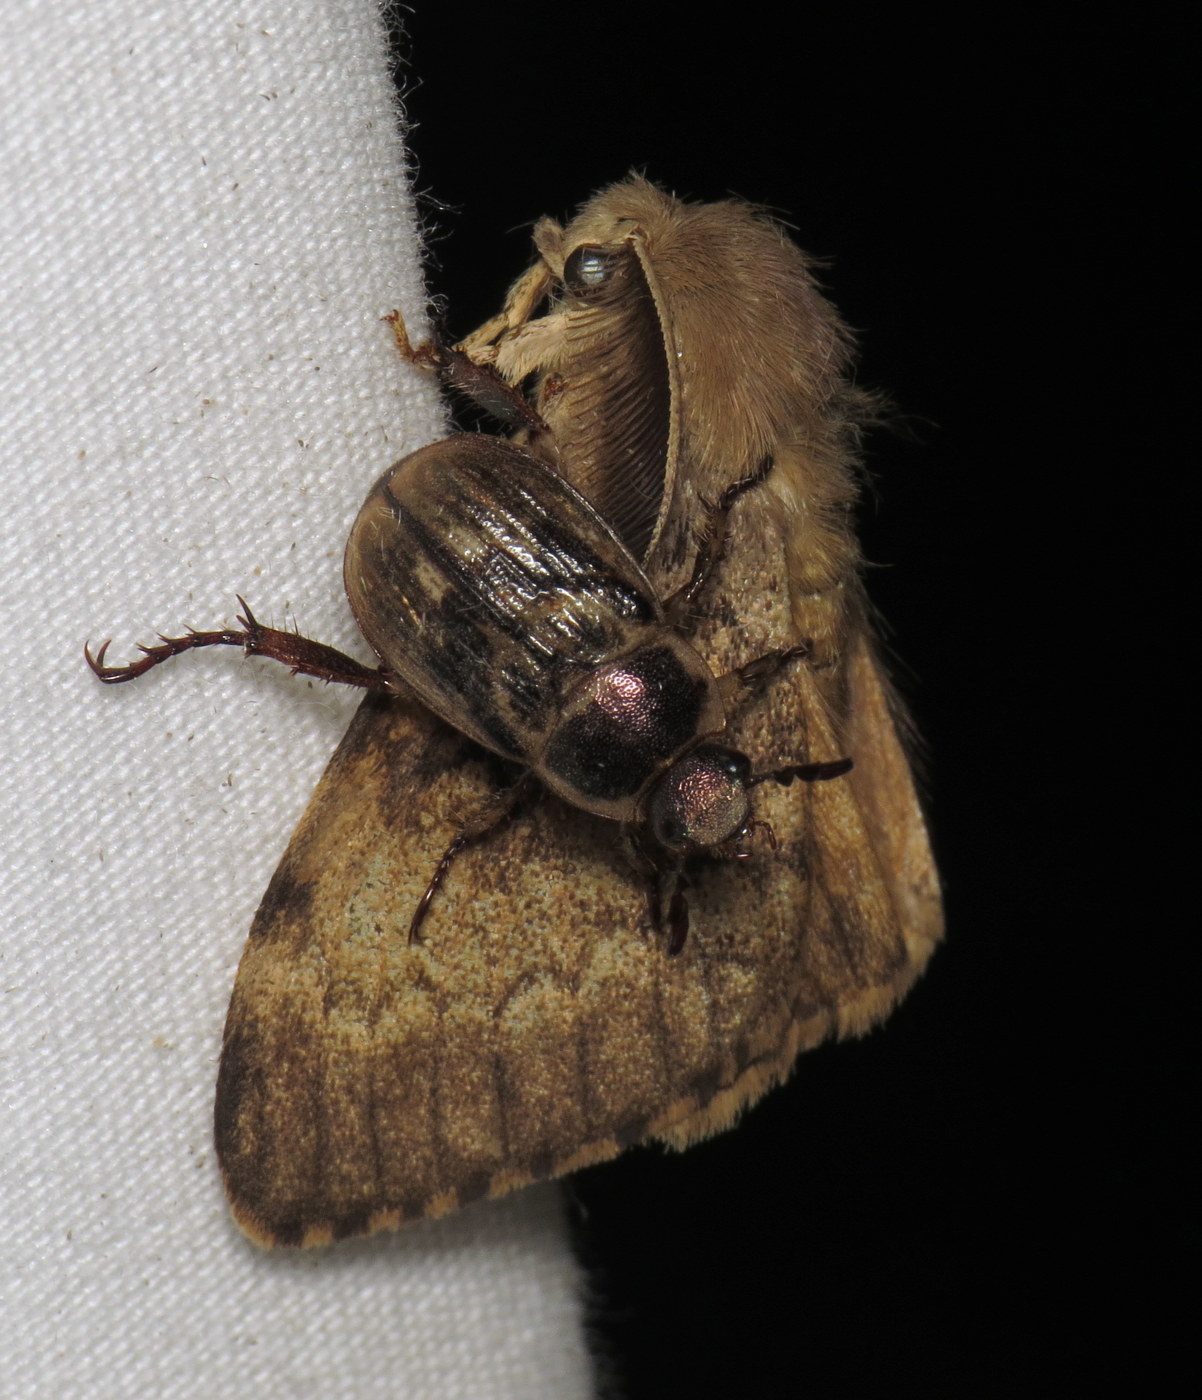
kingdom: Animalia
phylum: Arthropoda
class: Insecta
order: Lepidoptera
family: Erebidae
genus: Lymantria
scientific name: Lymantria dispar
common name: Gypsy moth
